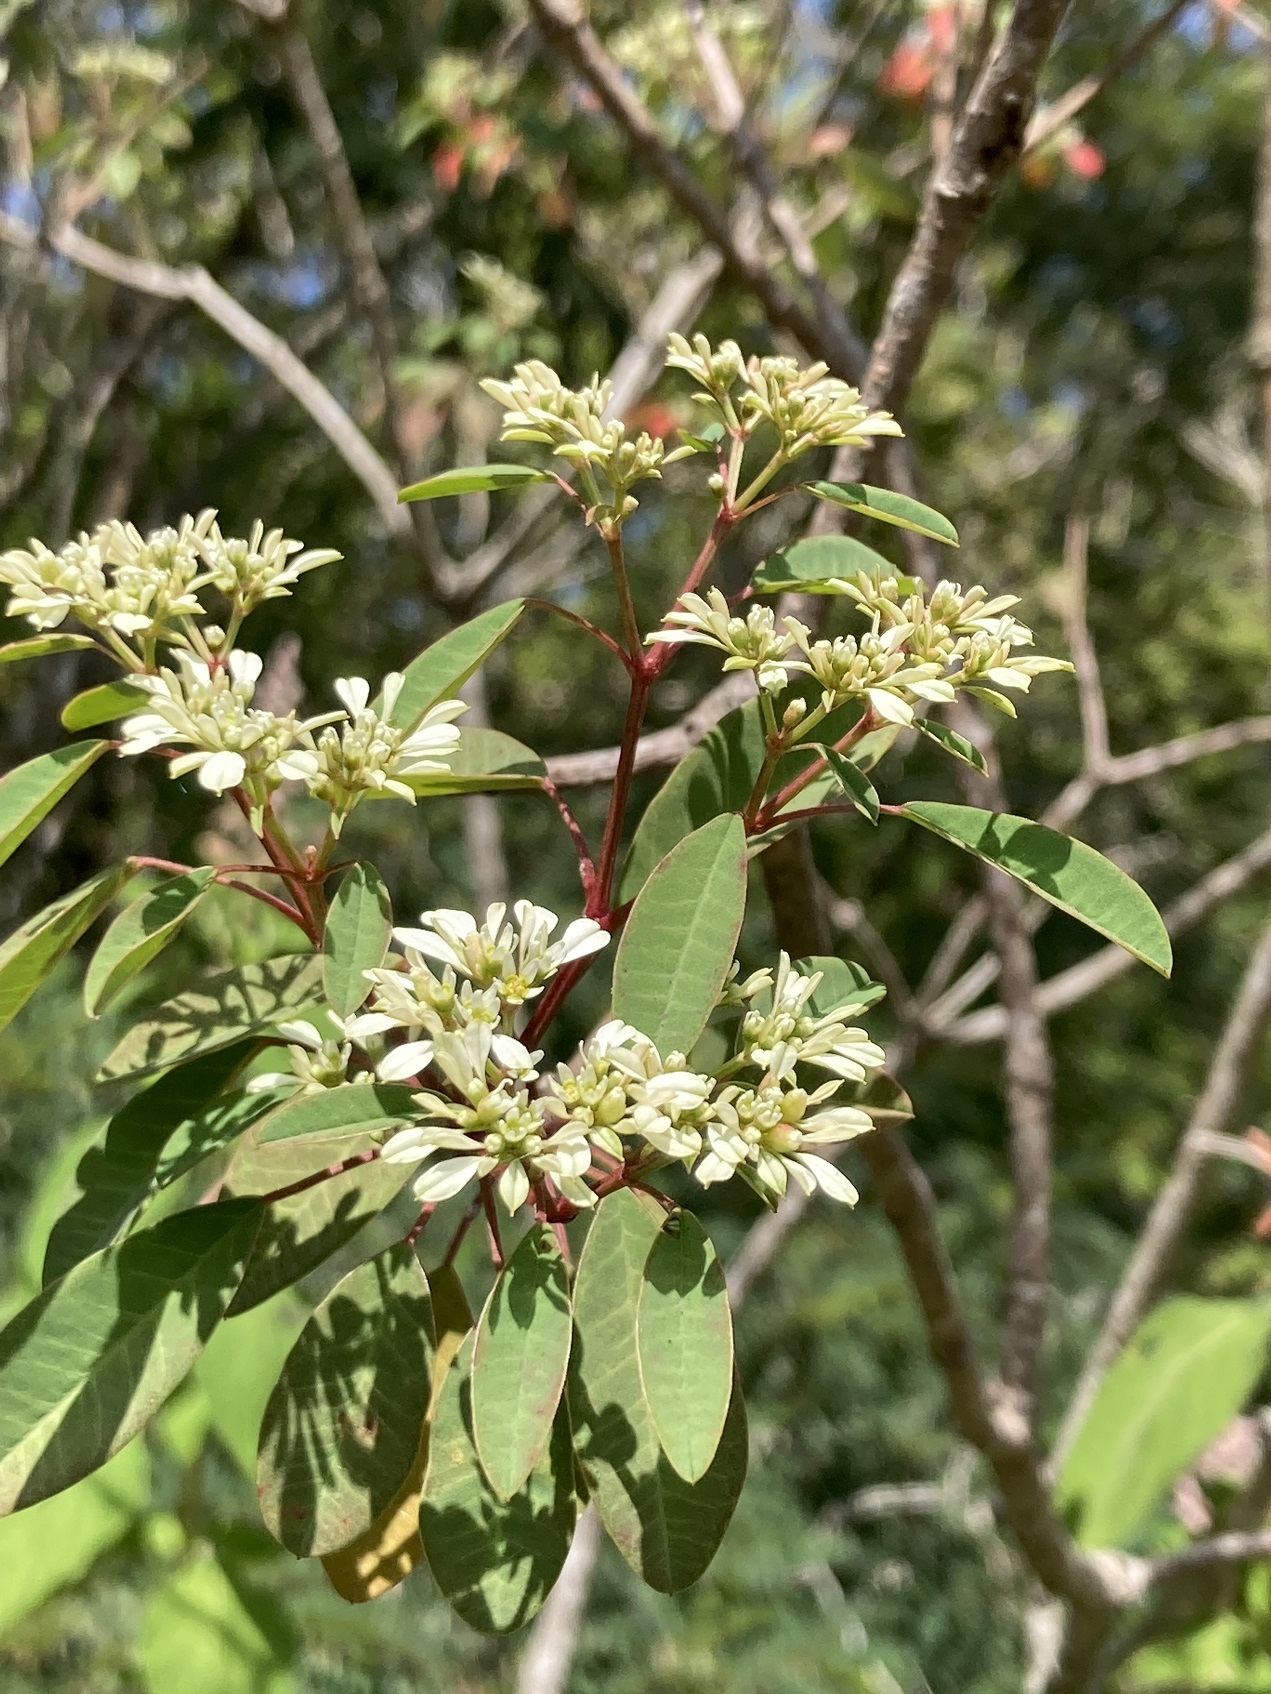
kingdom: Plantae
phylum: Tracheophyta
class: Magnoliopsida
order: Malpighiales
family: Euphorbiaceae
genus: Euphorbia
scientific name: Euphorbia leucocephala
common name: Pascuita
